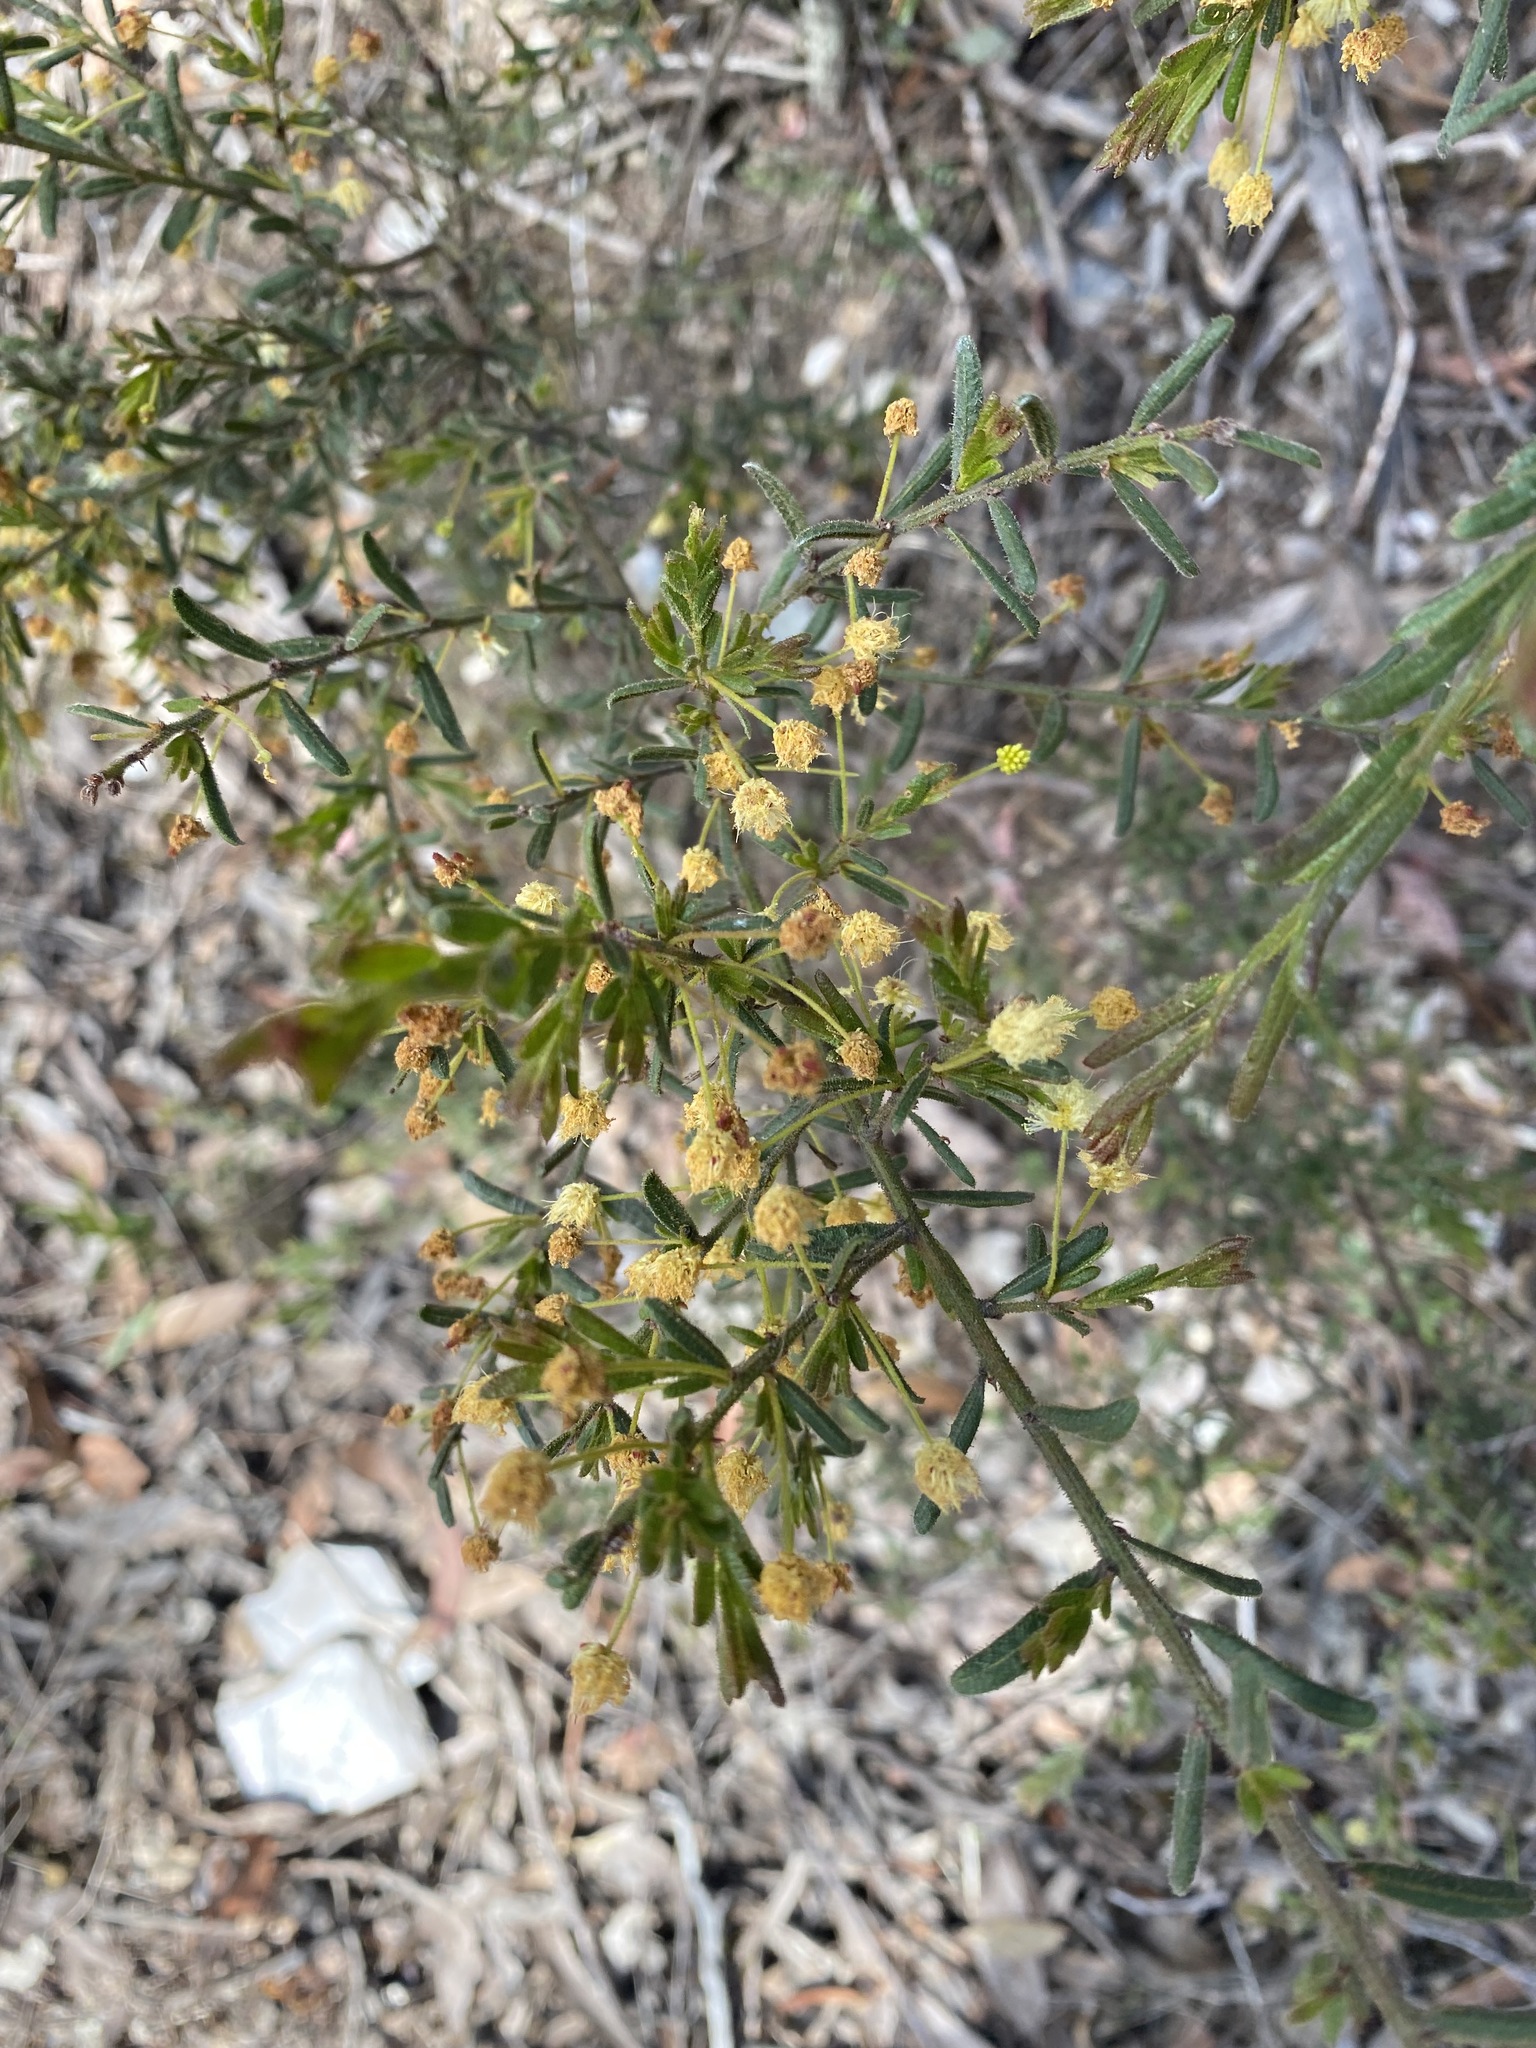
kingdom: Plantae
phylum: Tracheophyta
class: Magnoliopsida
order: Fabales
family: Fabaceae
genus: Acacia
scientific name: Acacia aspera
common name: Rough wattle
